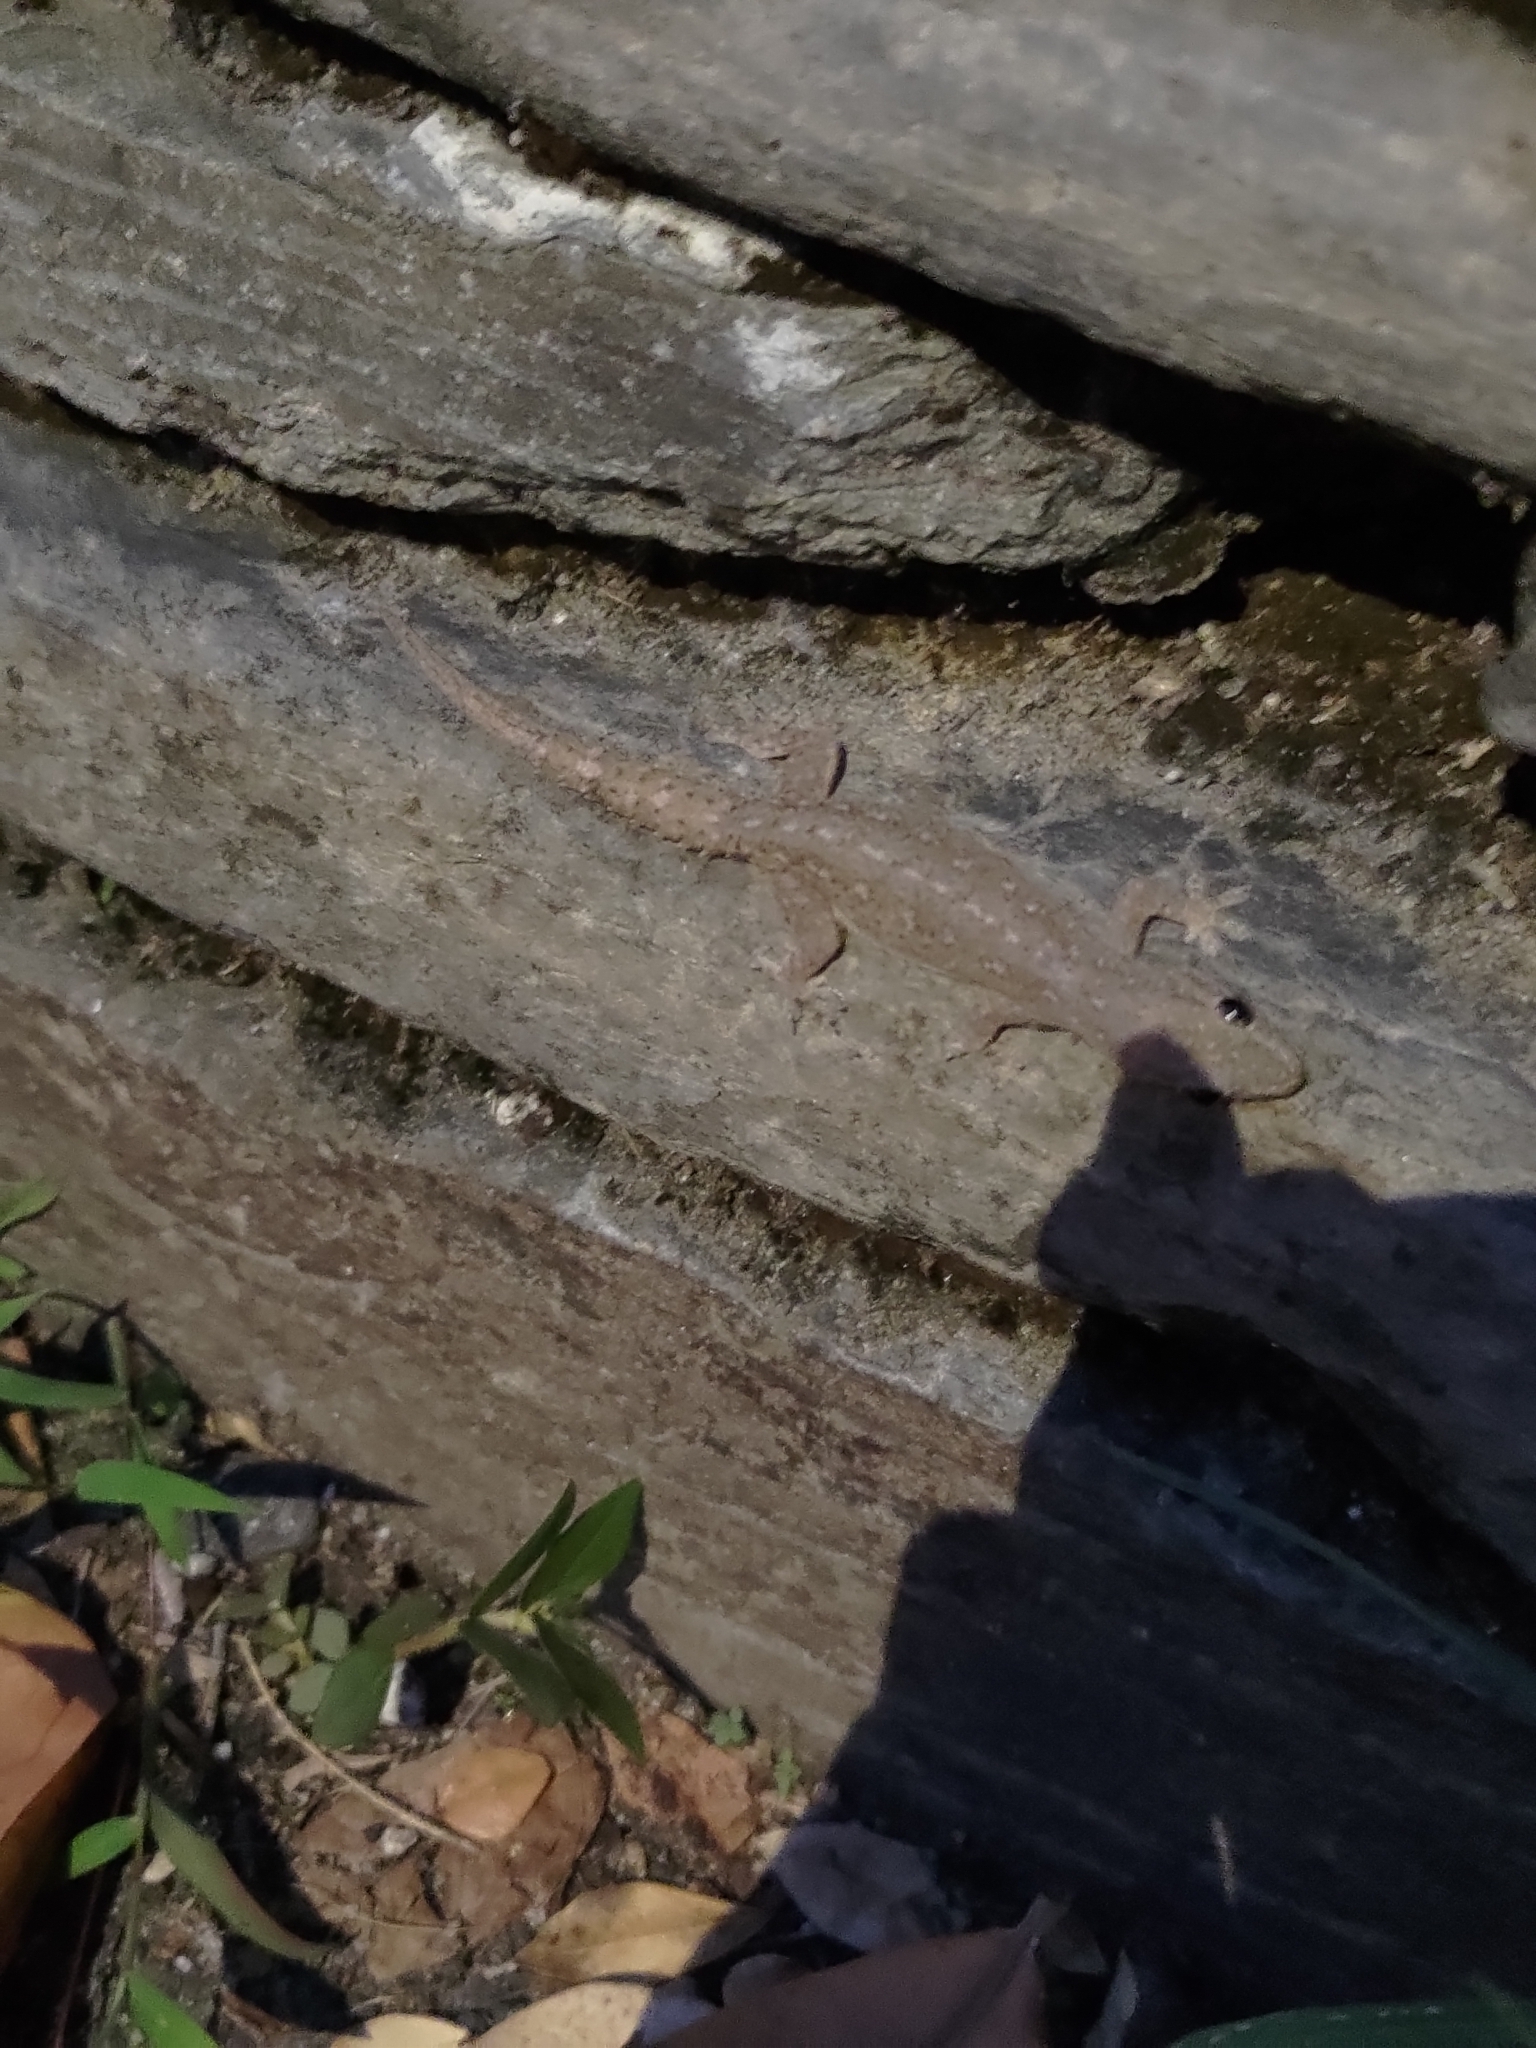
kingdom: Animalia
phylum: Chordata
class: Squamata
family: Gekkonidae
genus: Hemidactylus
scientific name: Hemidactylus frenatus
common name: Common house gecko
